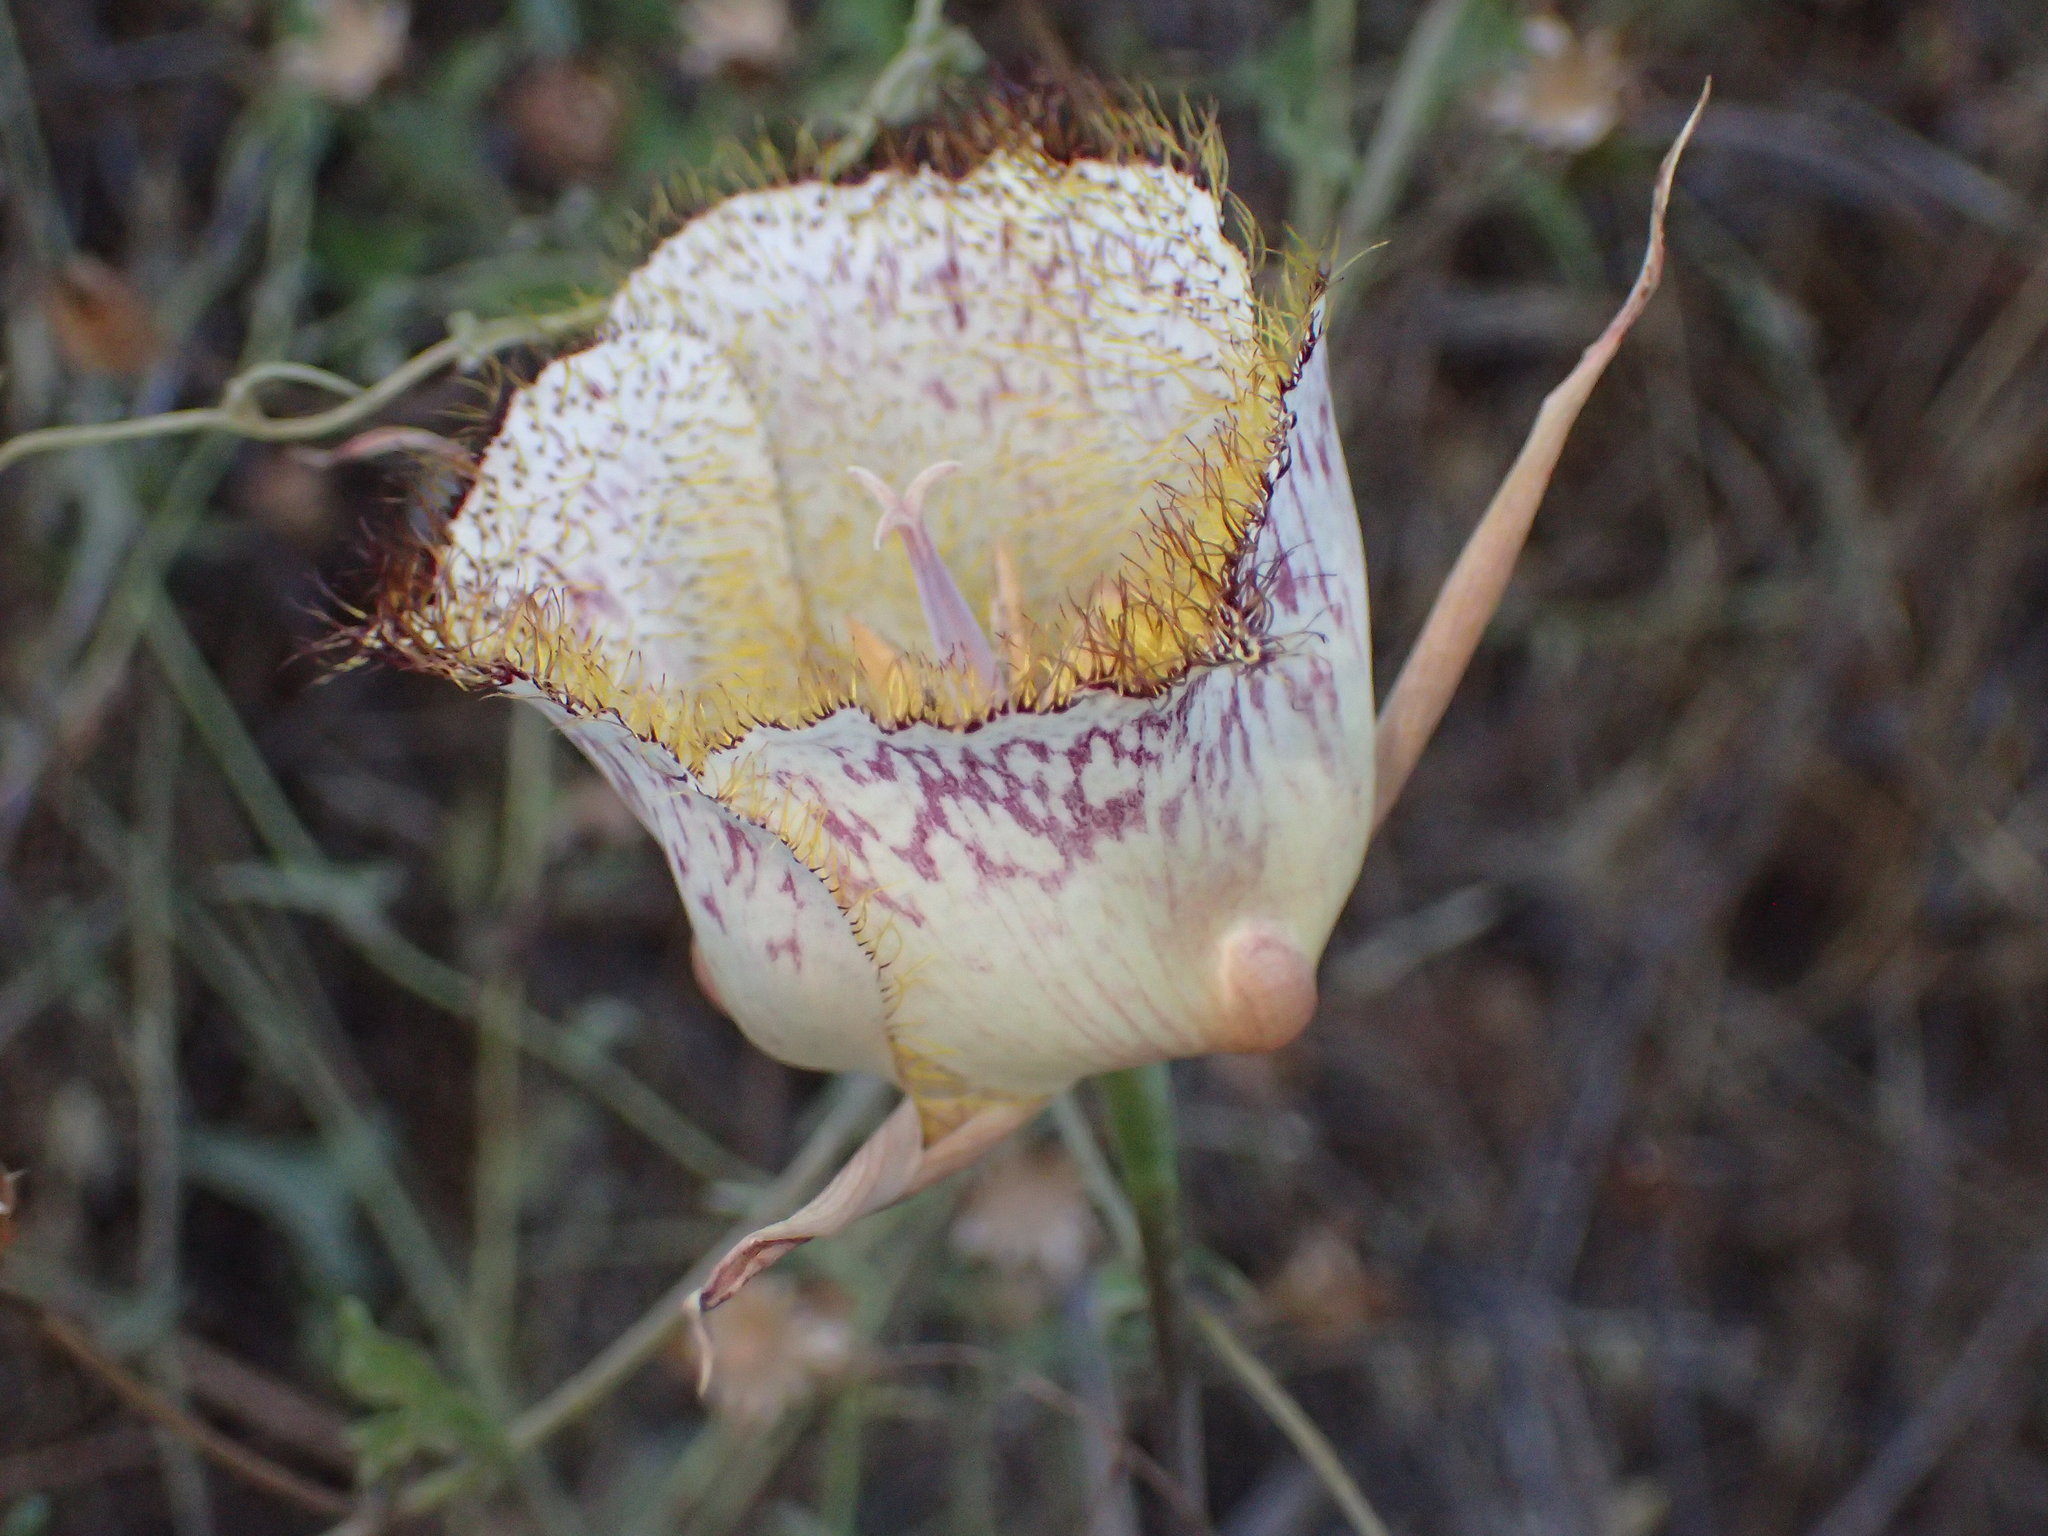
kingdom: Plantae
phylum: Tracheophyta
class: Liliopsida
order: Liliales
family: Liliaceae
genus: Calochortus
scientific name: Calochortus fimbriatus
